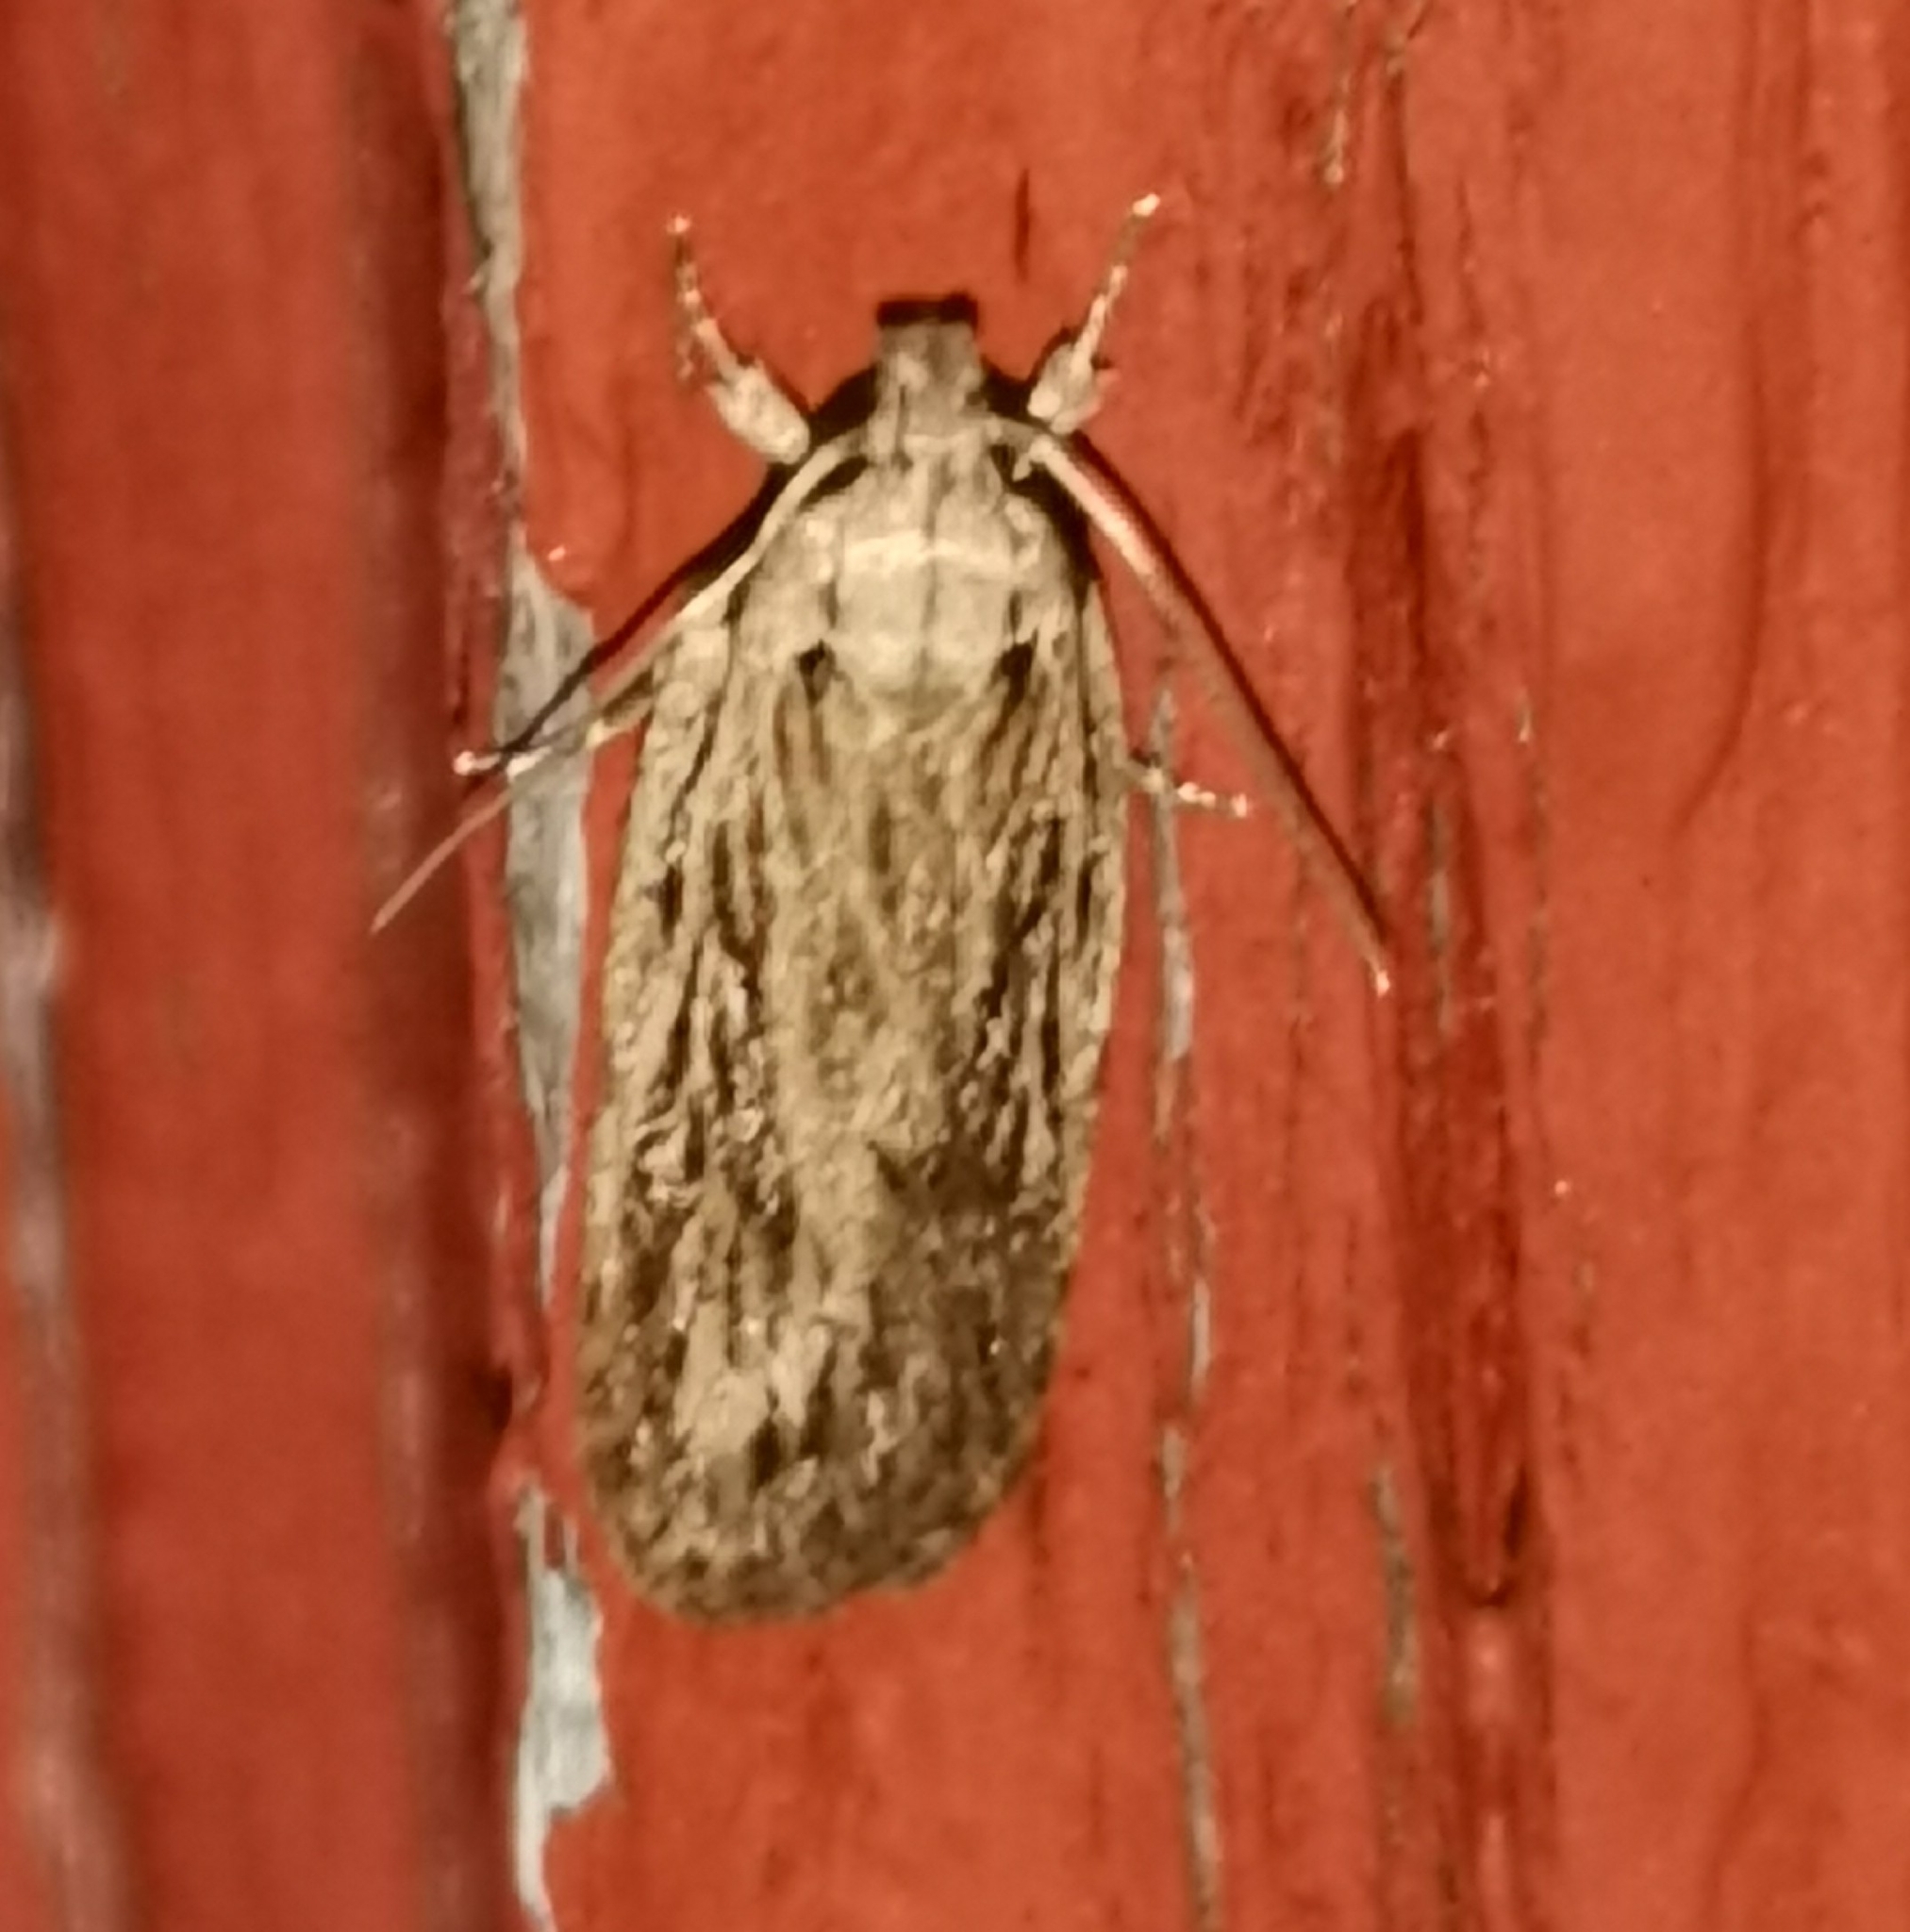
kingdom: Animalia
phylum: Arthropoda
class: Insecta
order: Lepidoptera
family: Depressariidae
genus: Depressaria
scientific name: Depressaria apiella
